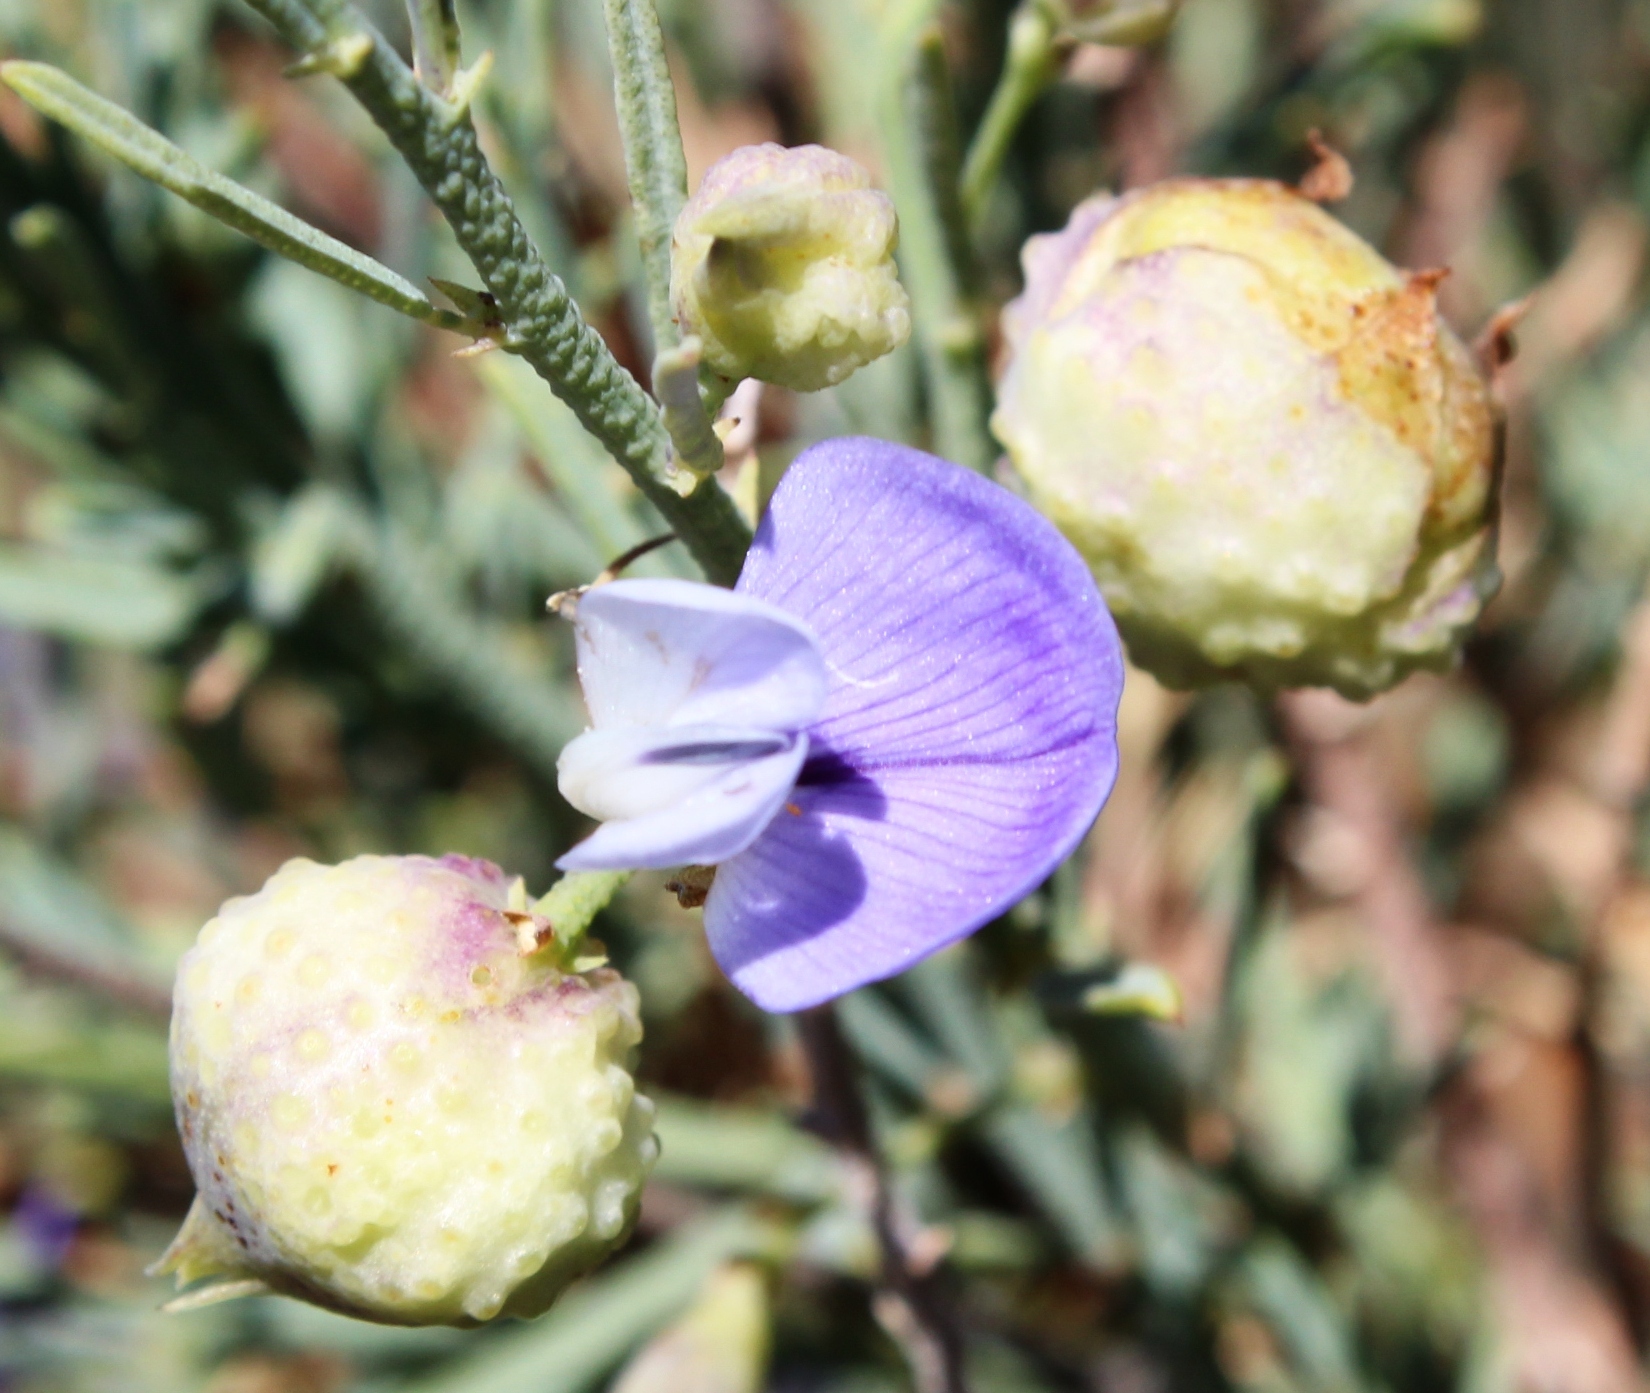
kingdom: Plantae
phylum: Tracheophyta
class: Magnoliopsida
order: Fabales
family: Fabaceae
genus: Psoralea
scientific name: Psoralea verrucosa
